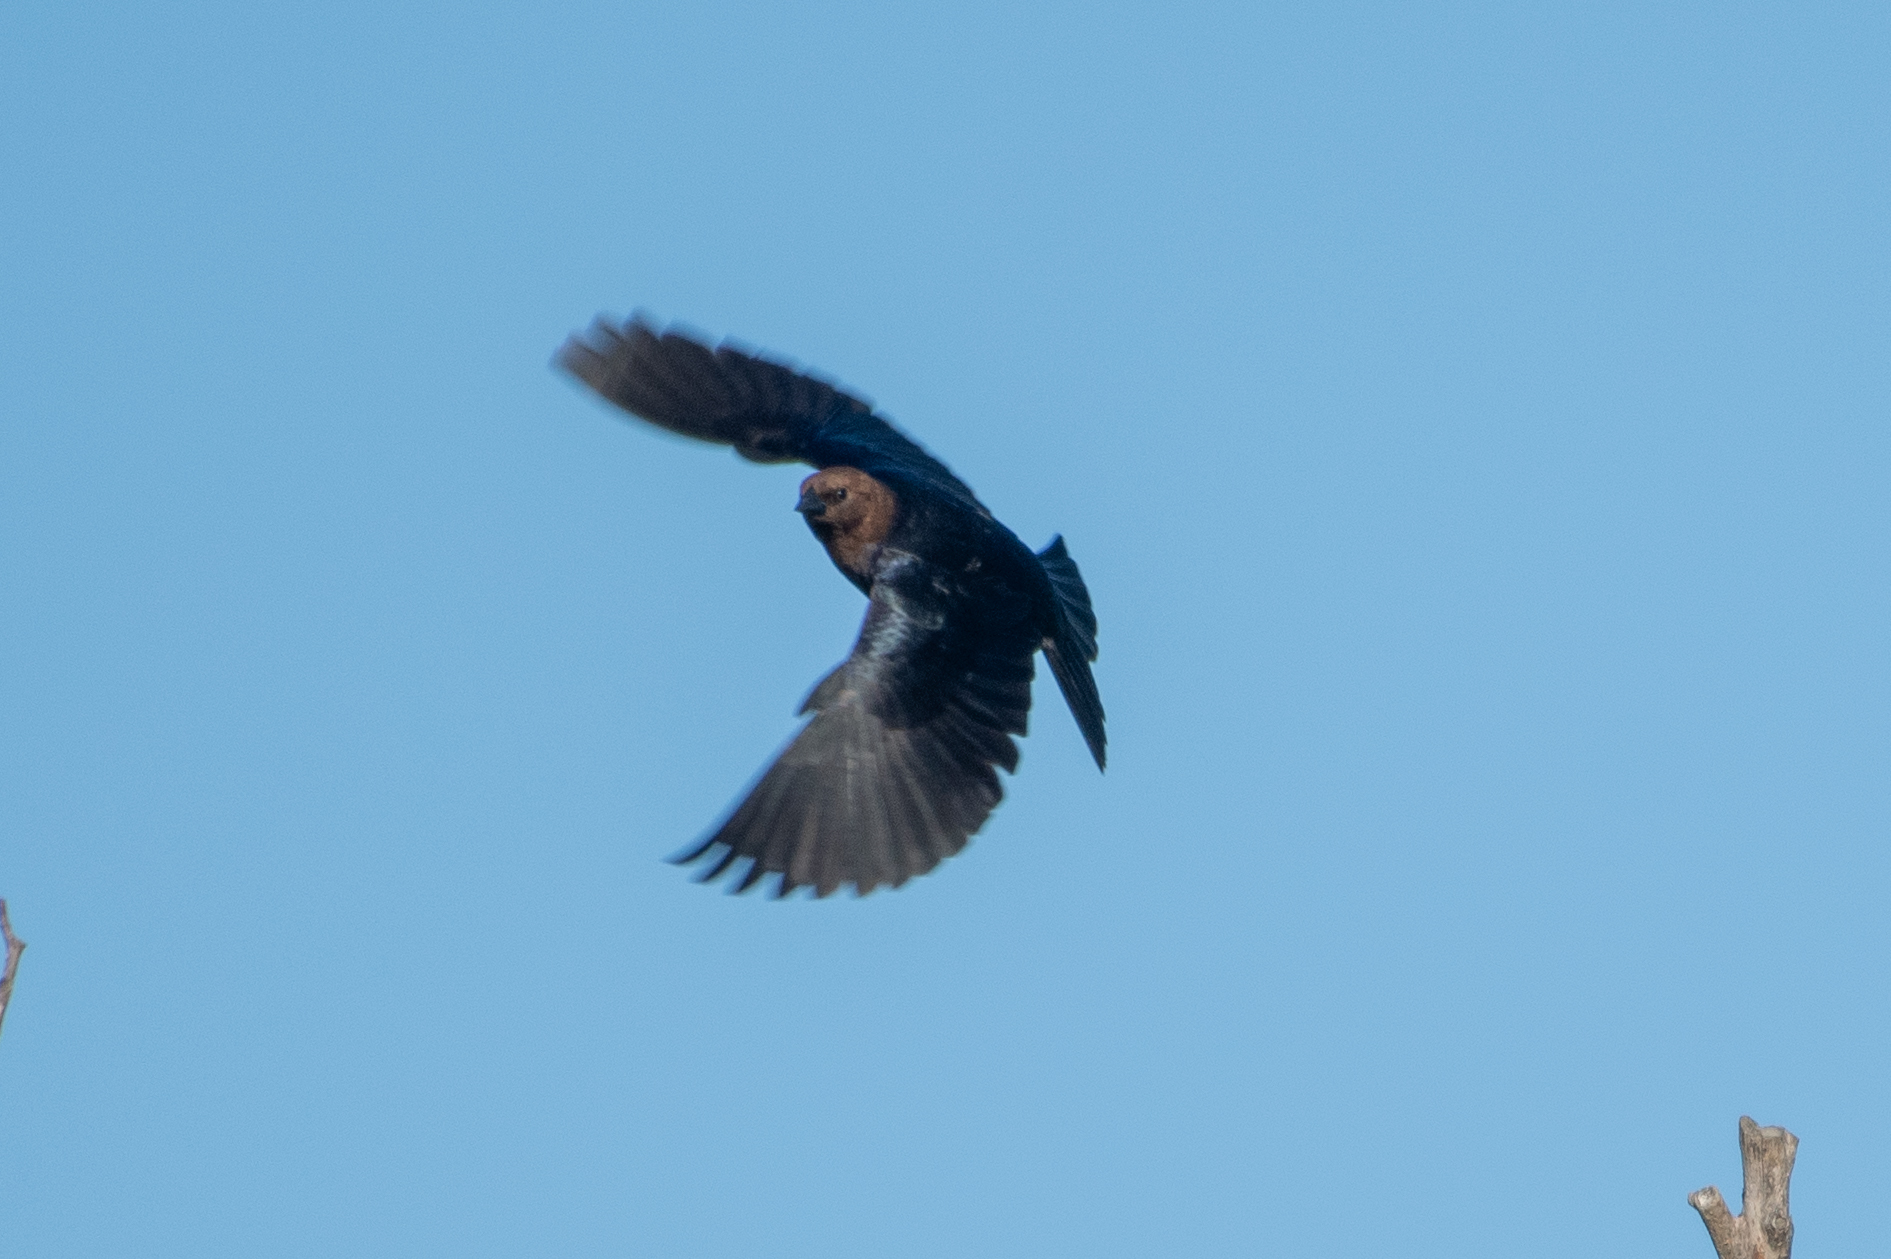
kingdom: Animalia
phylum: Chordata
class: Aves
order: Passeriformes
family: Icteridae
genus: Molothrus
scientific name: Molothrus ater
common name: Brown-headed cowbird
